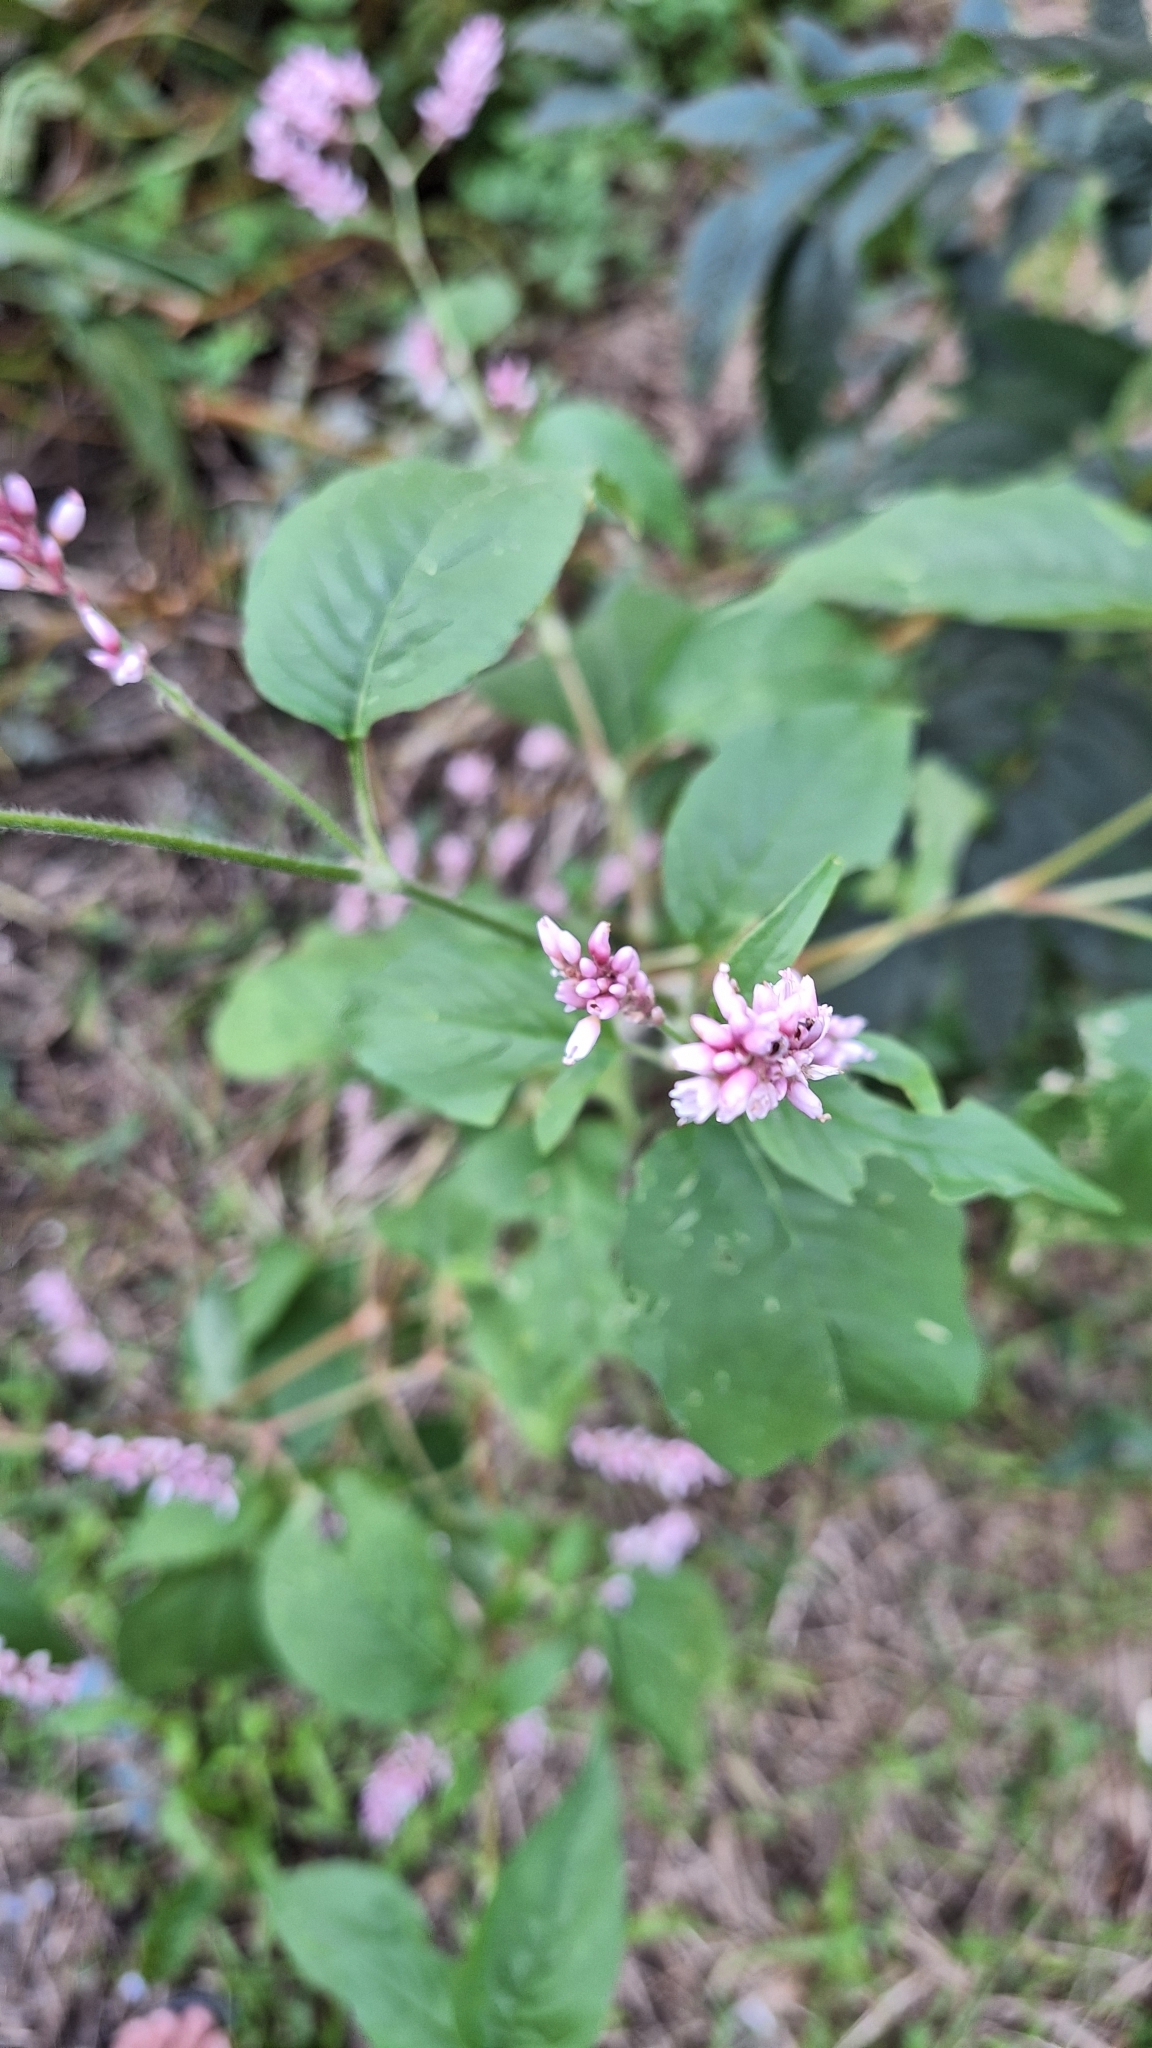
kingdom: Plantae
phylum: Tracheophyta
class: Magnoliopsida
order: Caryophyllales
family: Polygonaceae
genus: Persicaria
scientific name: Persicaria orientalis
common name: Kiss-me-over-the-garden-gate
